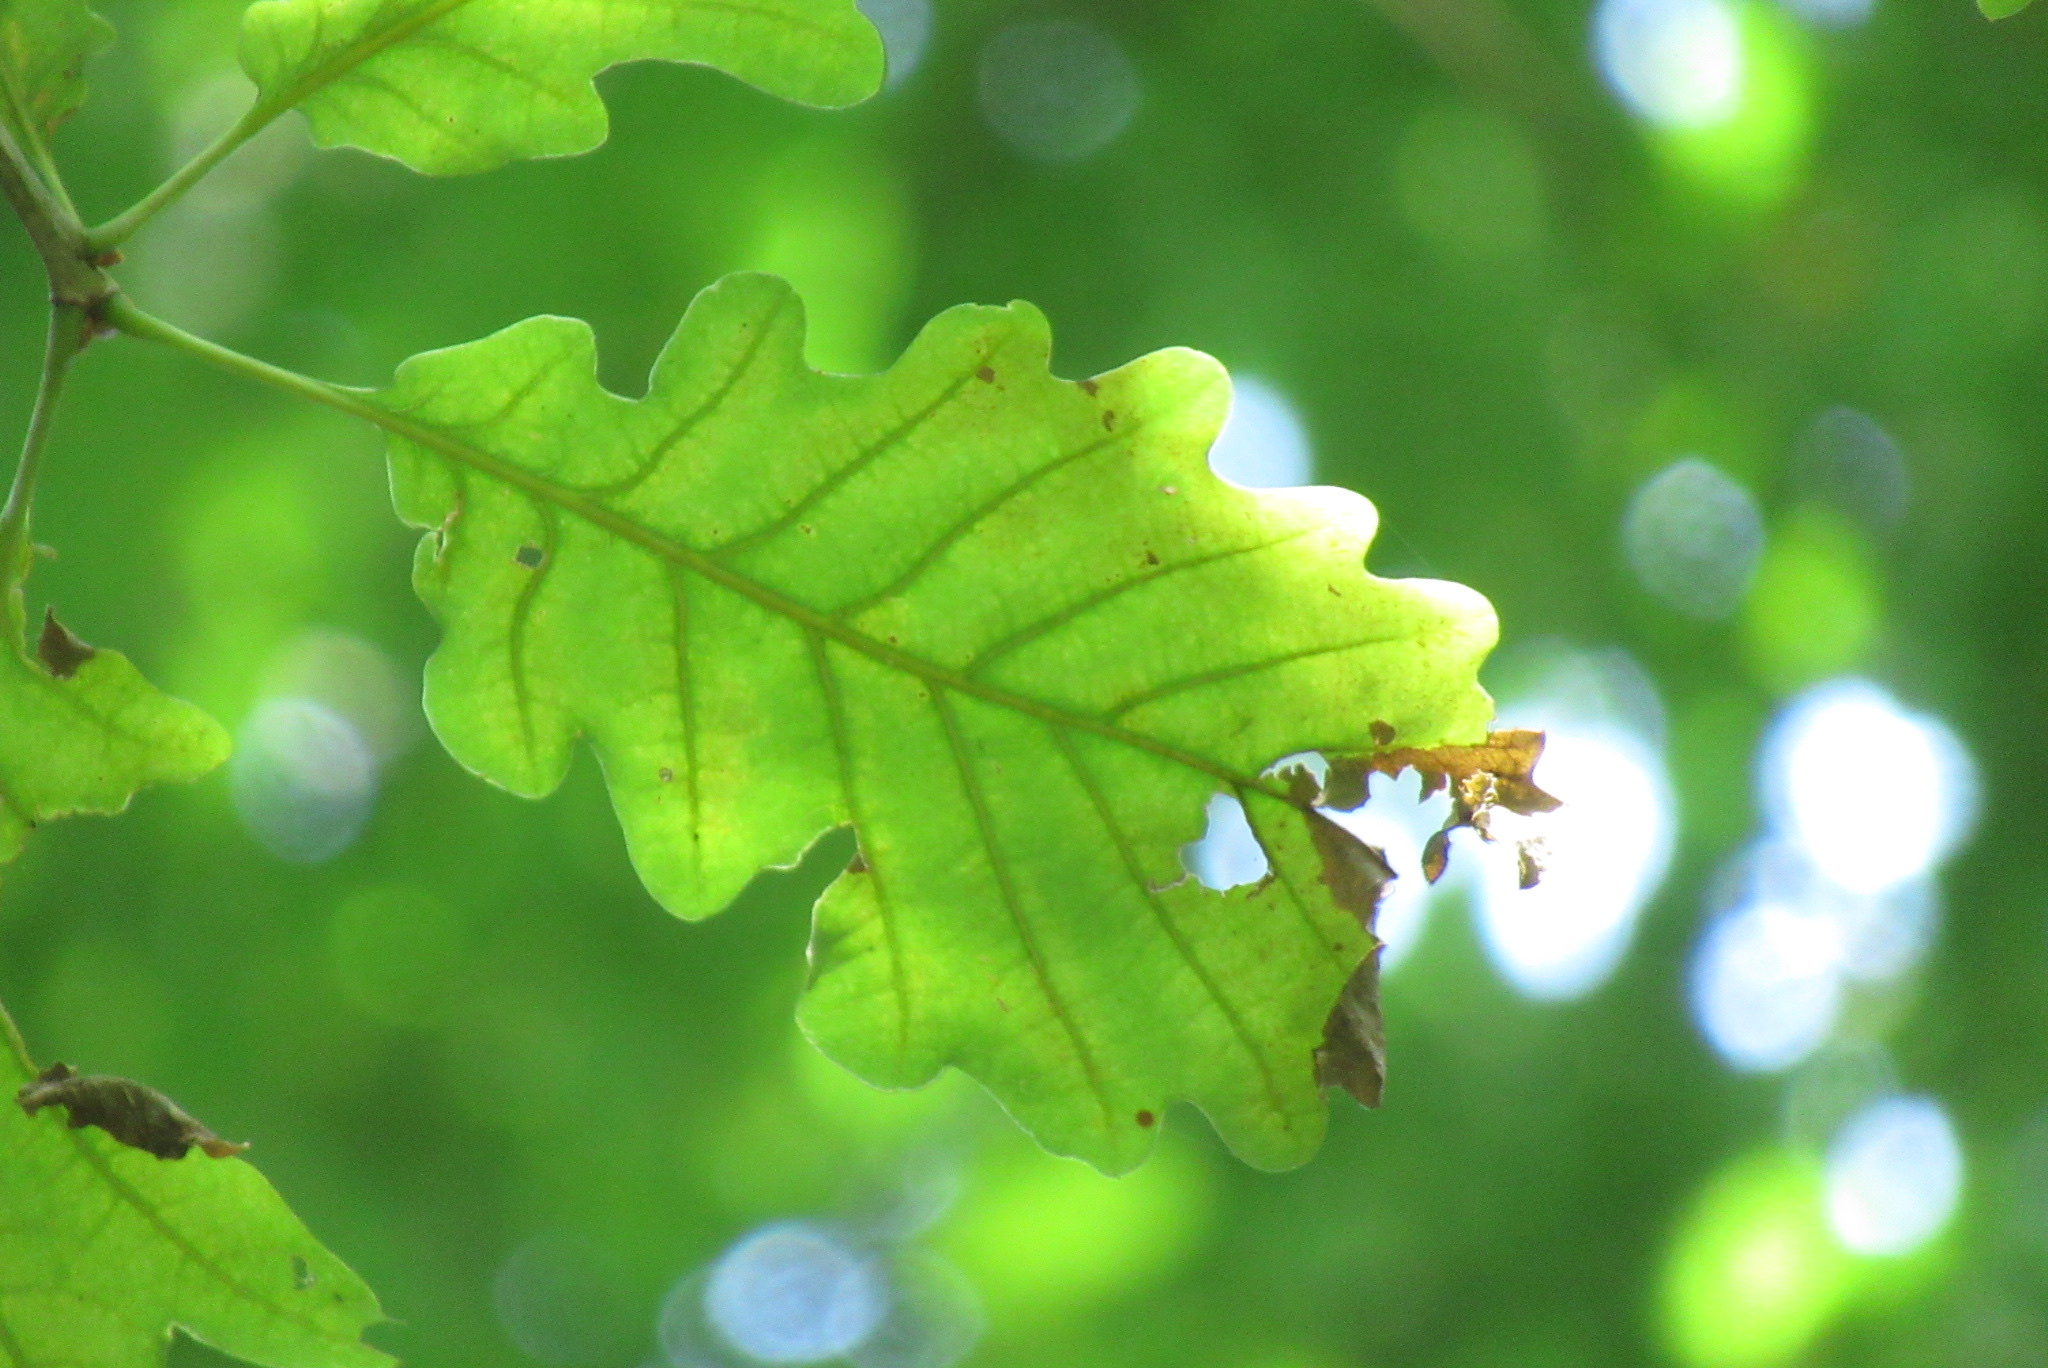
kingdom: Plantae
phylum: Tracheophyta
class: Magnoliopsida
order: Fagales
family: Fagaceae
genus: Quercus
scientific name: Quercus petraea
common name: Sessile oak
